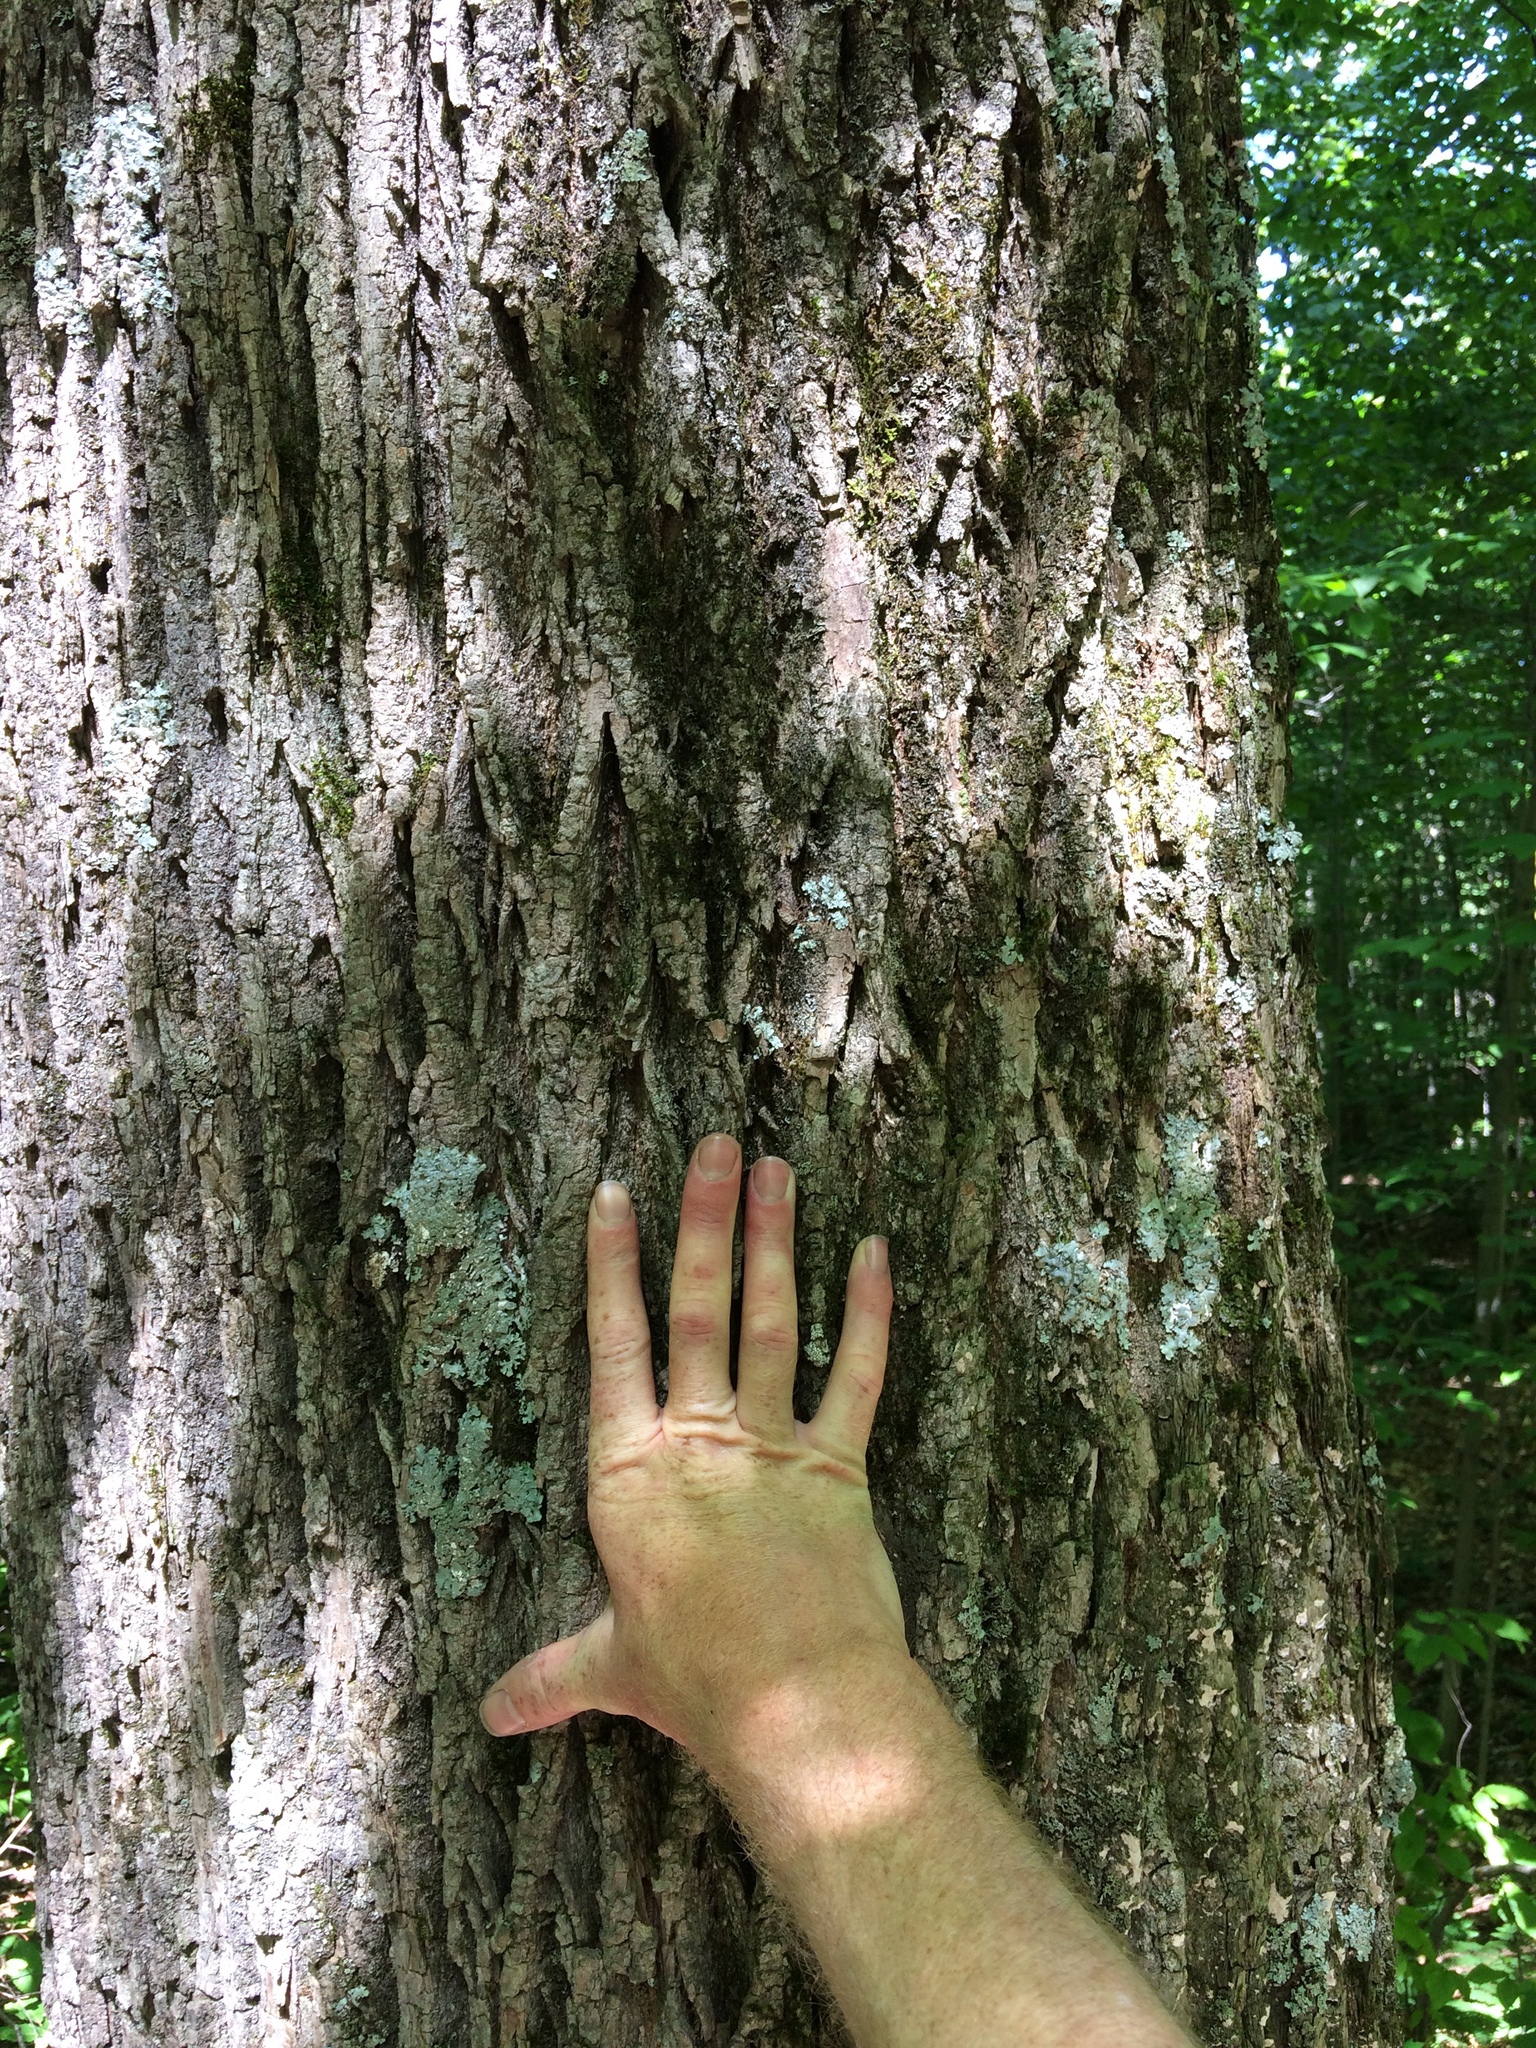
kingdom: Plantae
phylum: Tracheophyta
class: Magnoliopsida
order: Lamiales
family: Oleaceae
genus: Fraxinus
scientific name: Fraxinus americana
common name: White ash
